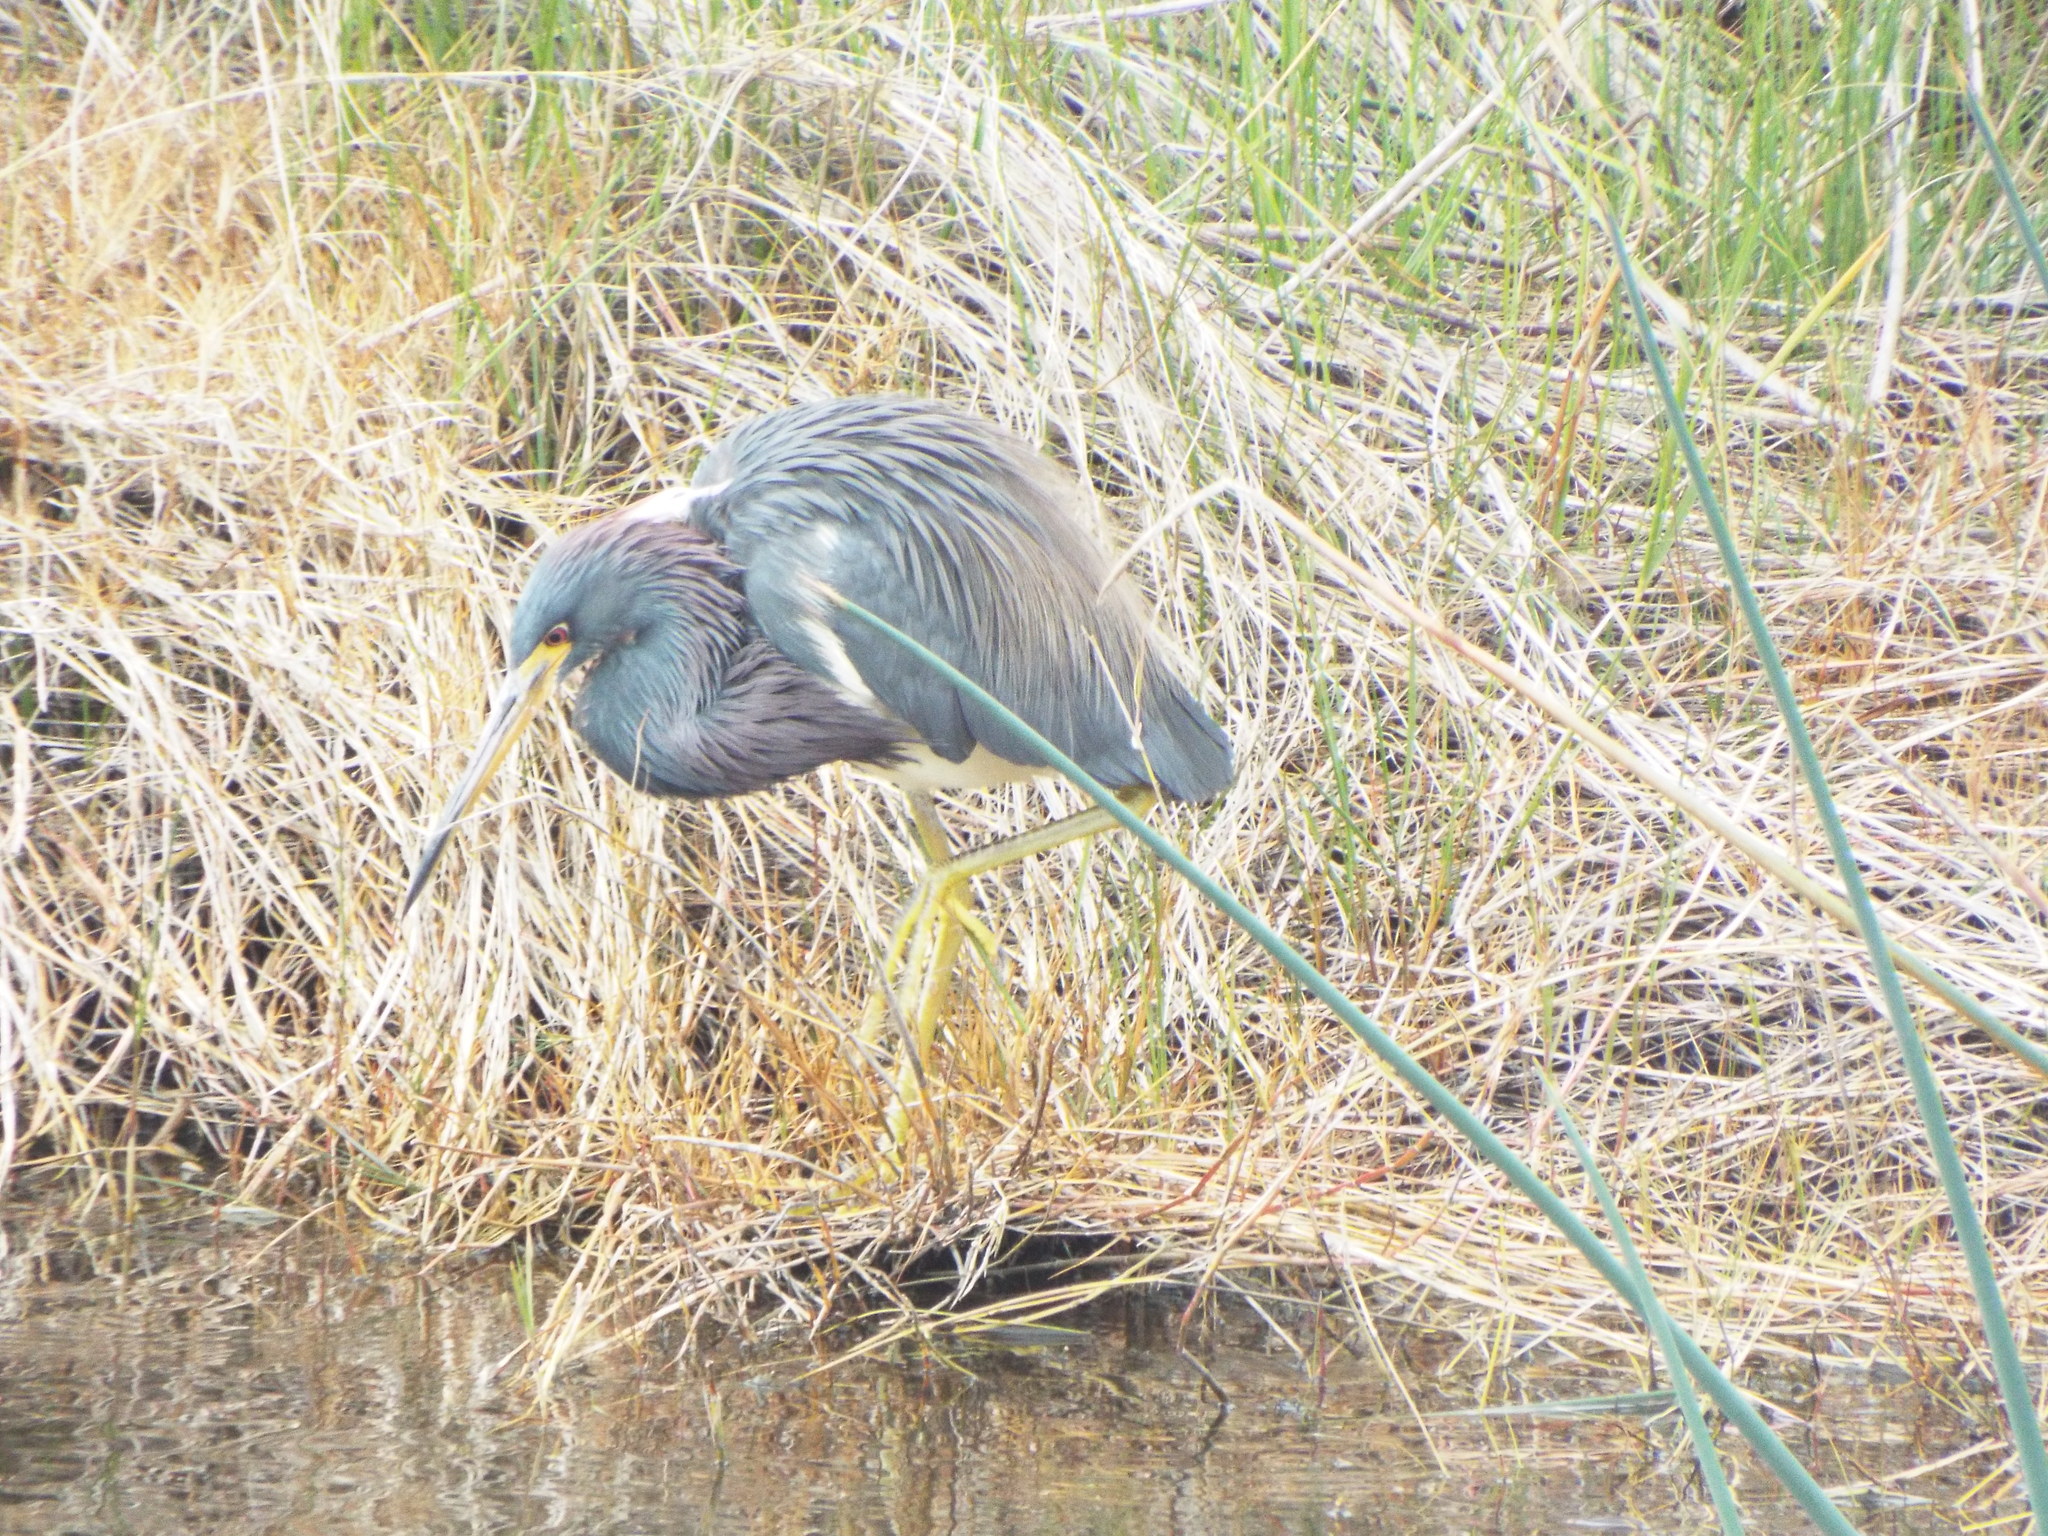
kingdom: Animalia
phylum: Chordata
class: Aves
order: Pelecaniformes
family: Ardeidae
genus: Egretta
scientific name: Egretta tricolor
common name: Tricolored heron
